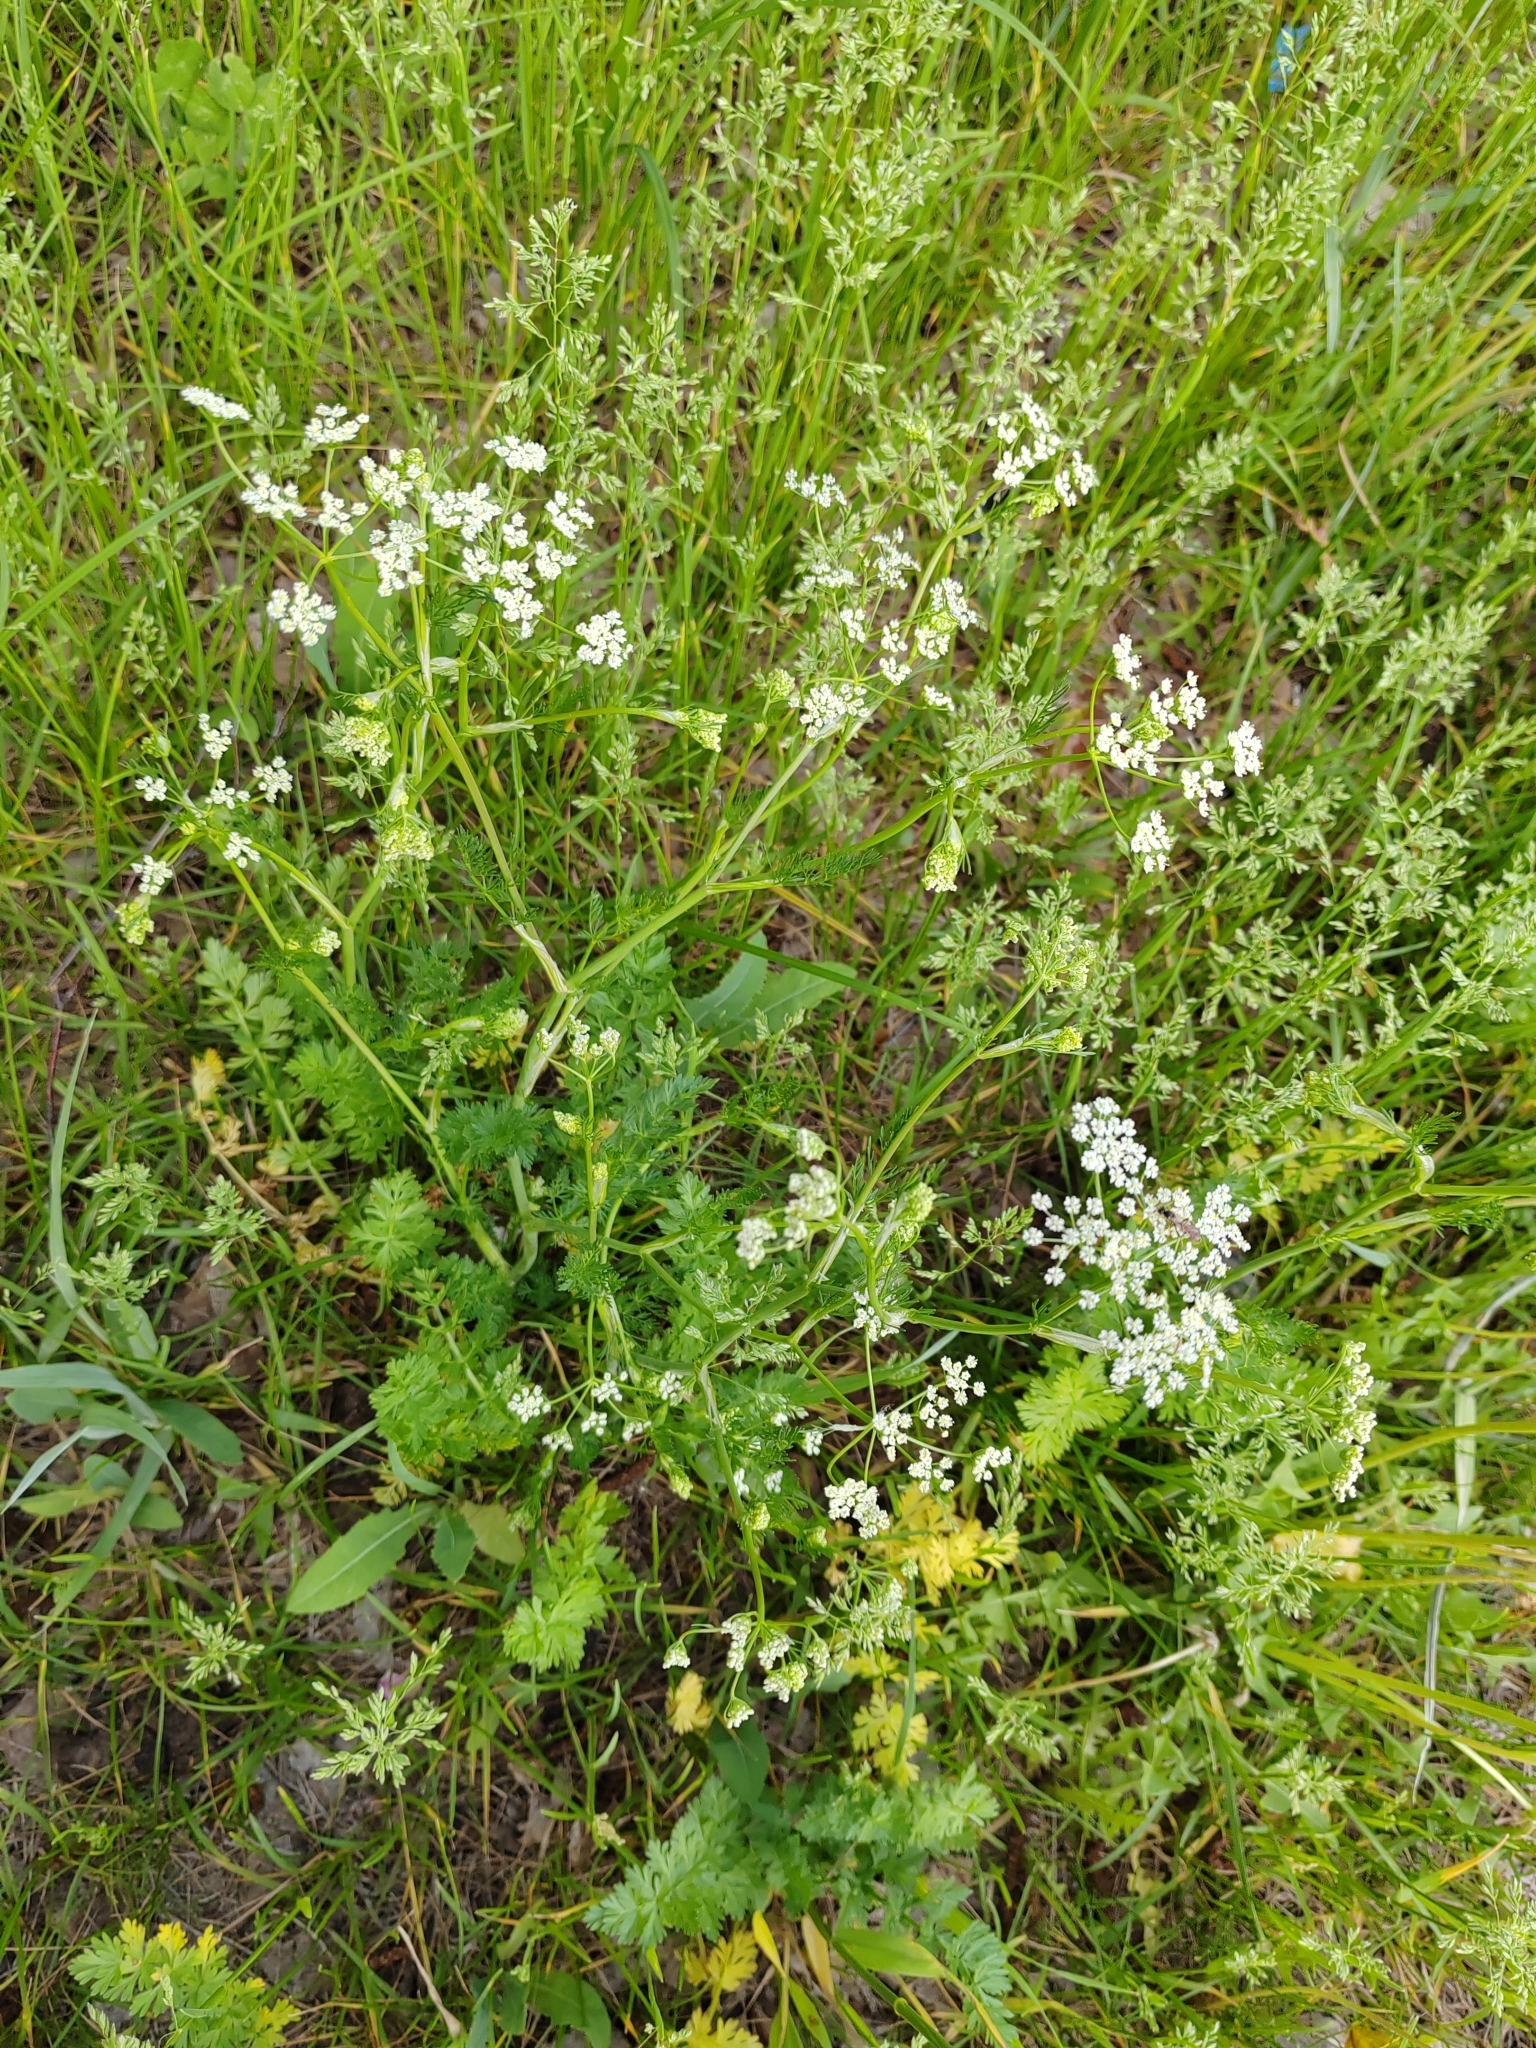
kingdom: Plantae
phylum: Tracheophyta
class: Magnoliopsida
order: Apiales
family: Apiaceae
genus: Carum
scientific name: Carum carvi
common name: Caraway
